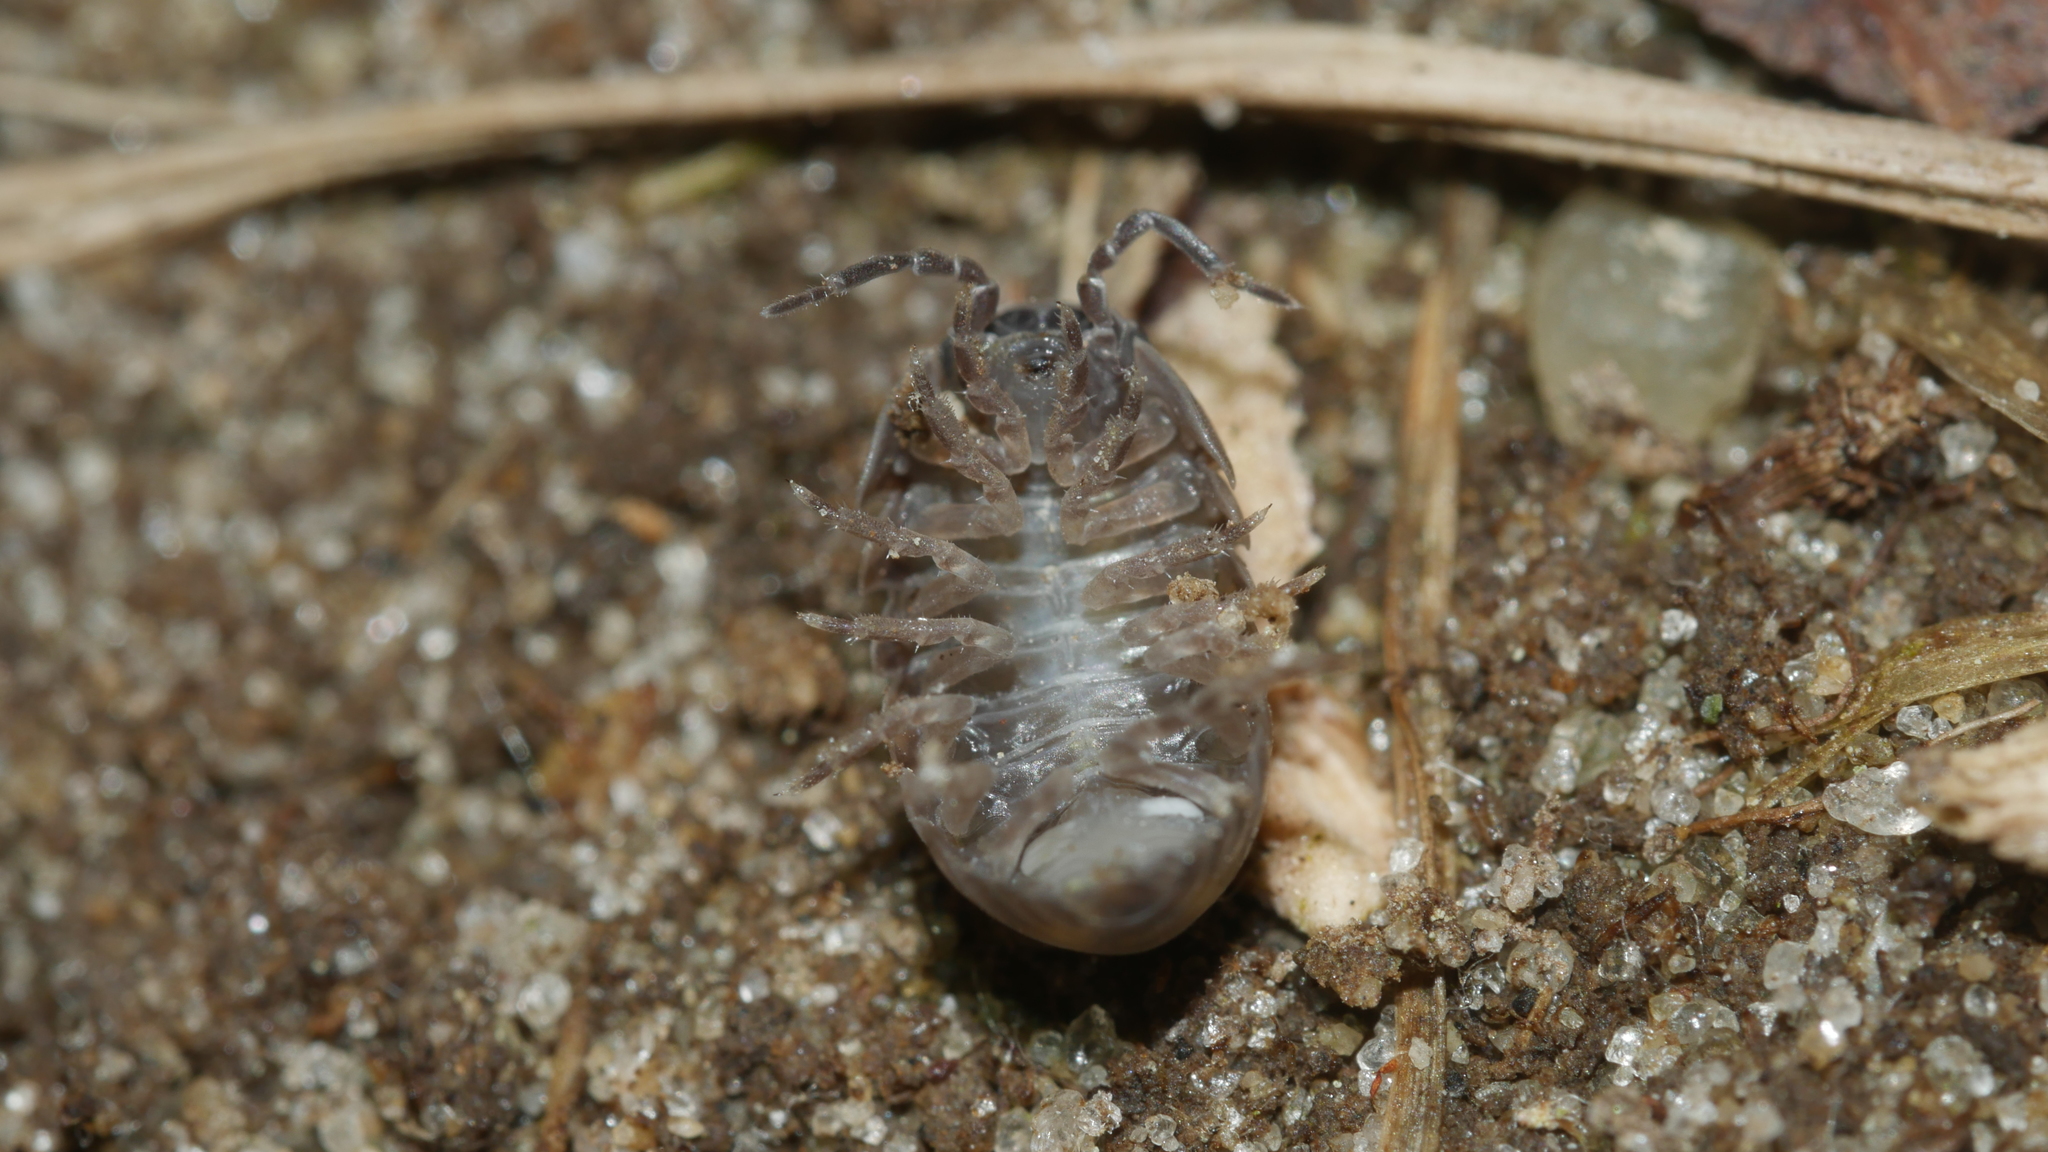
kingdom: Animalia
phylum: Arthropoda
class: Malacostraca
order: Isopoda
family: Armadillidiidae
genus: Armadillidium
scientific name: Armadillidium vulgare
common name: Common pill woodlouse
